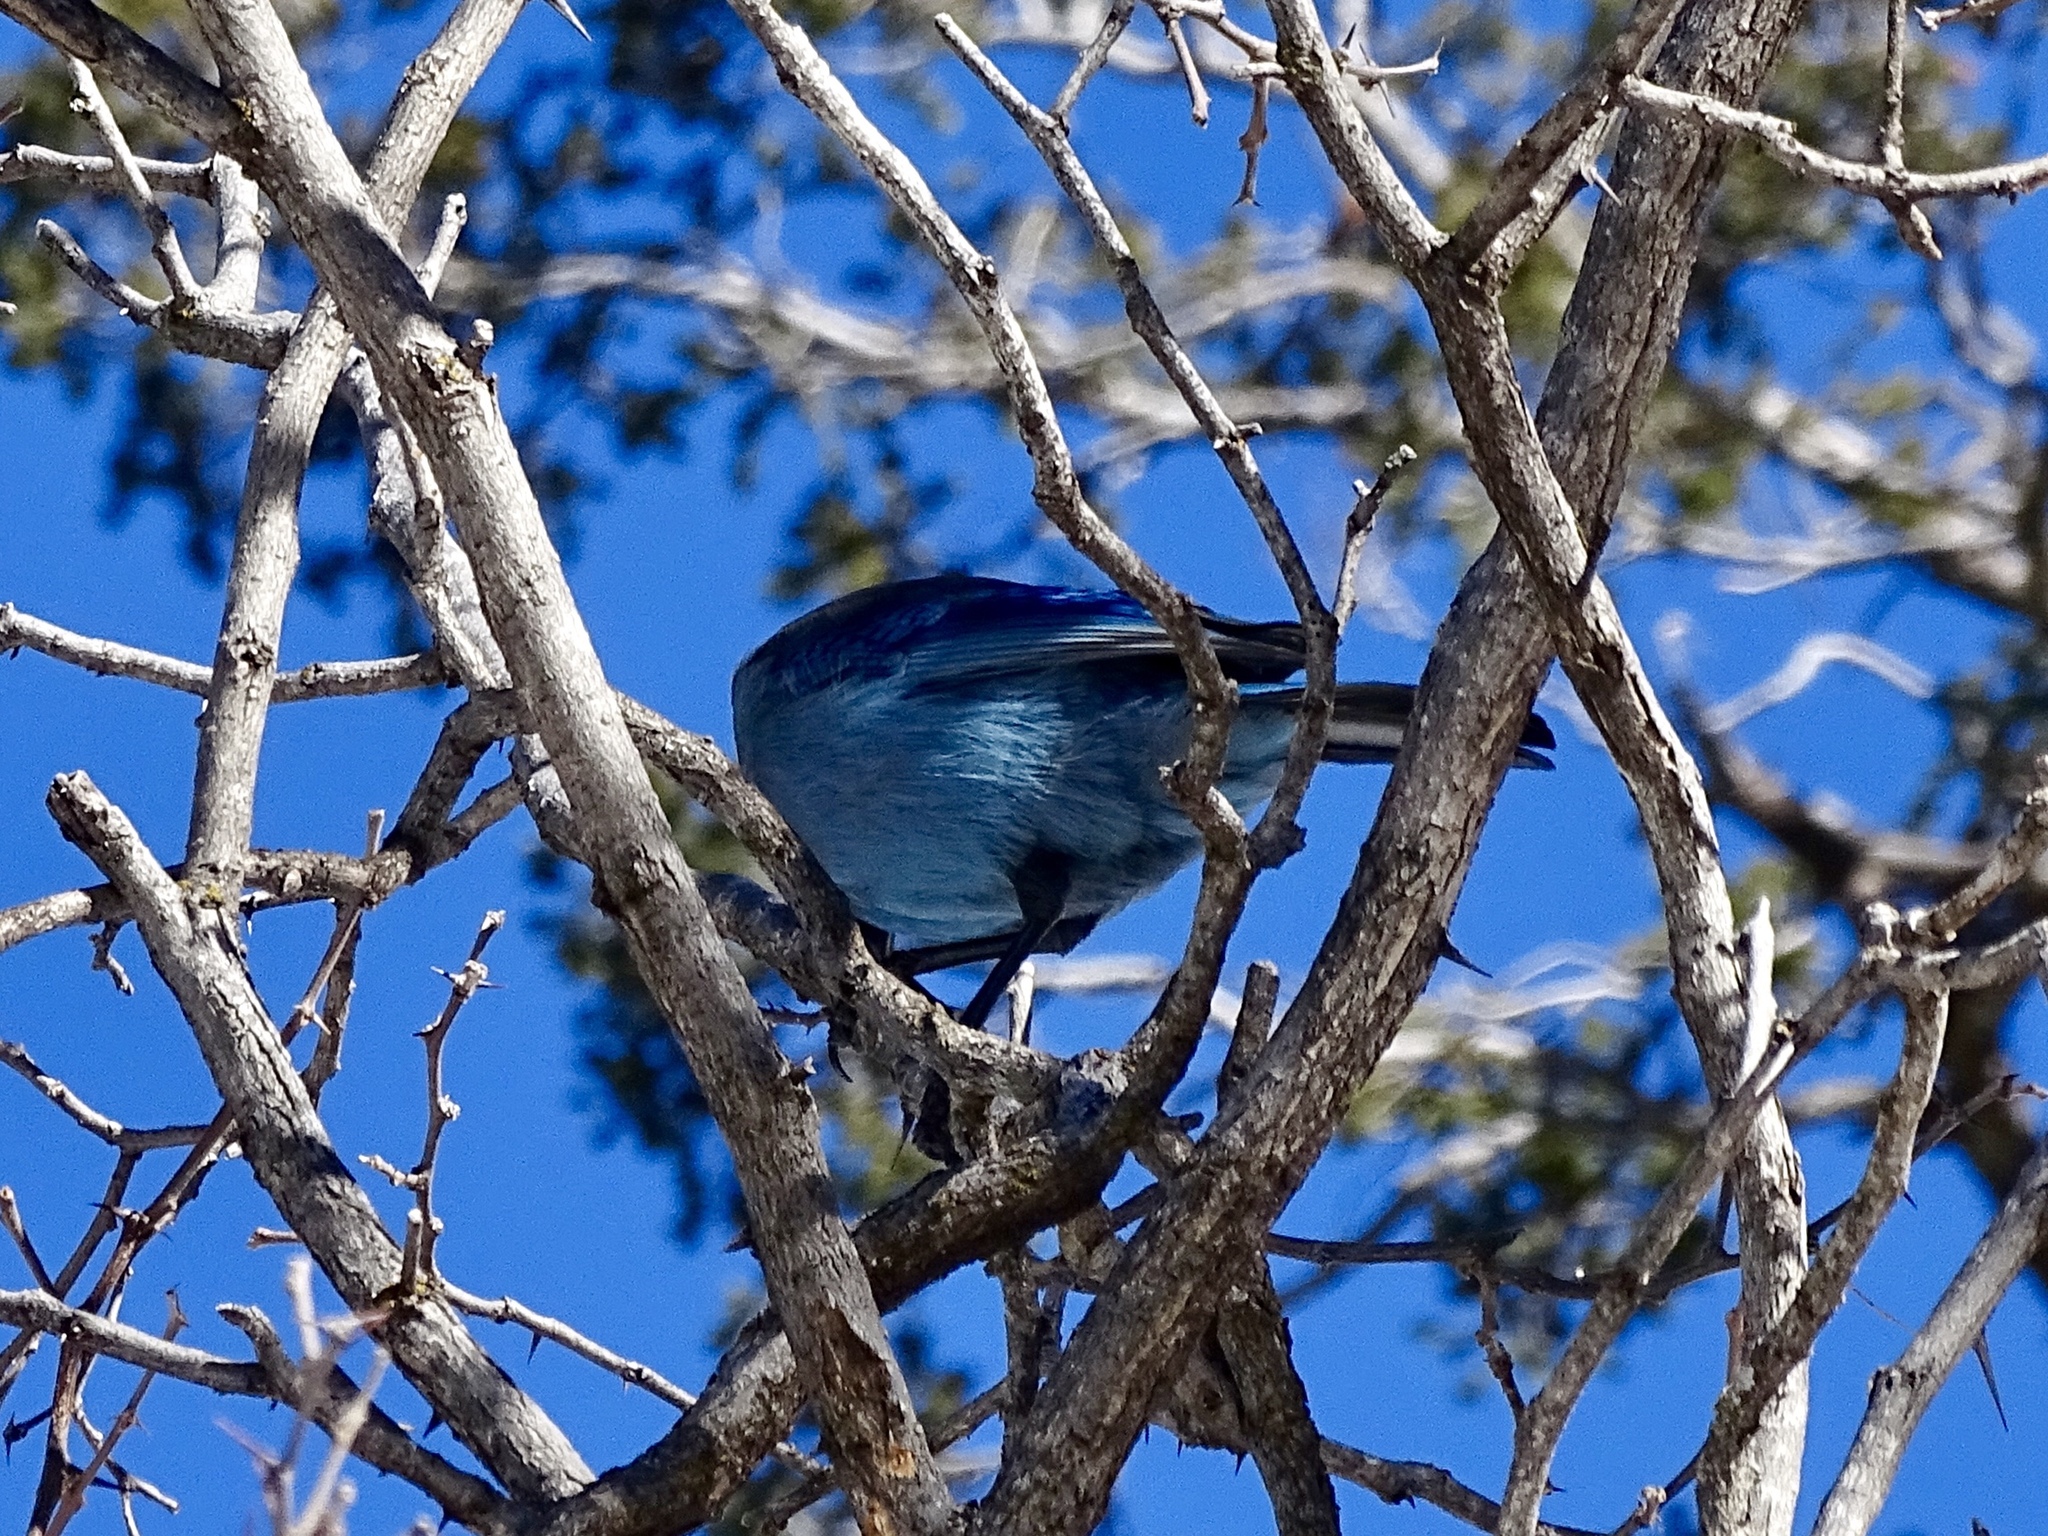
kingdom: Animalia
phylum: Chordata
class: Aves
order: Passeriformes
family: Corvidae
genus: Cyanocitta
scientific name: Cyanocitta stelleri
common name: Steller's jay
